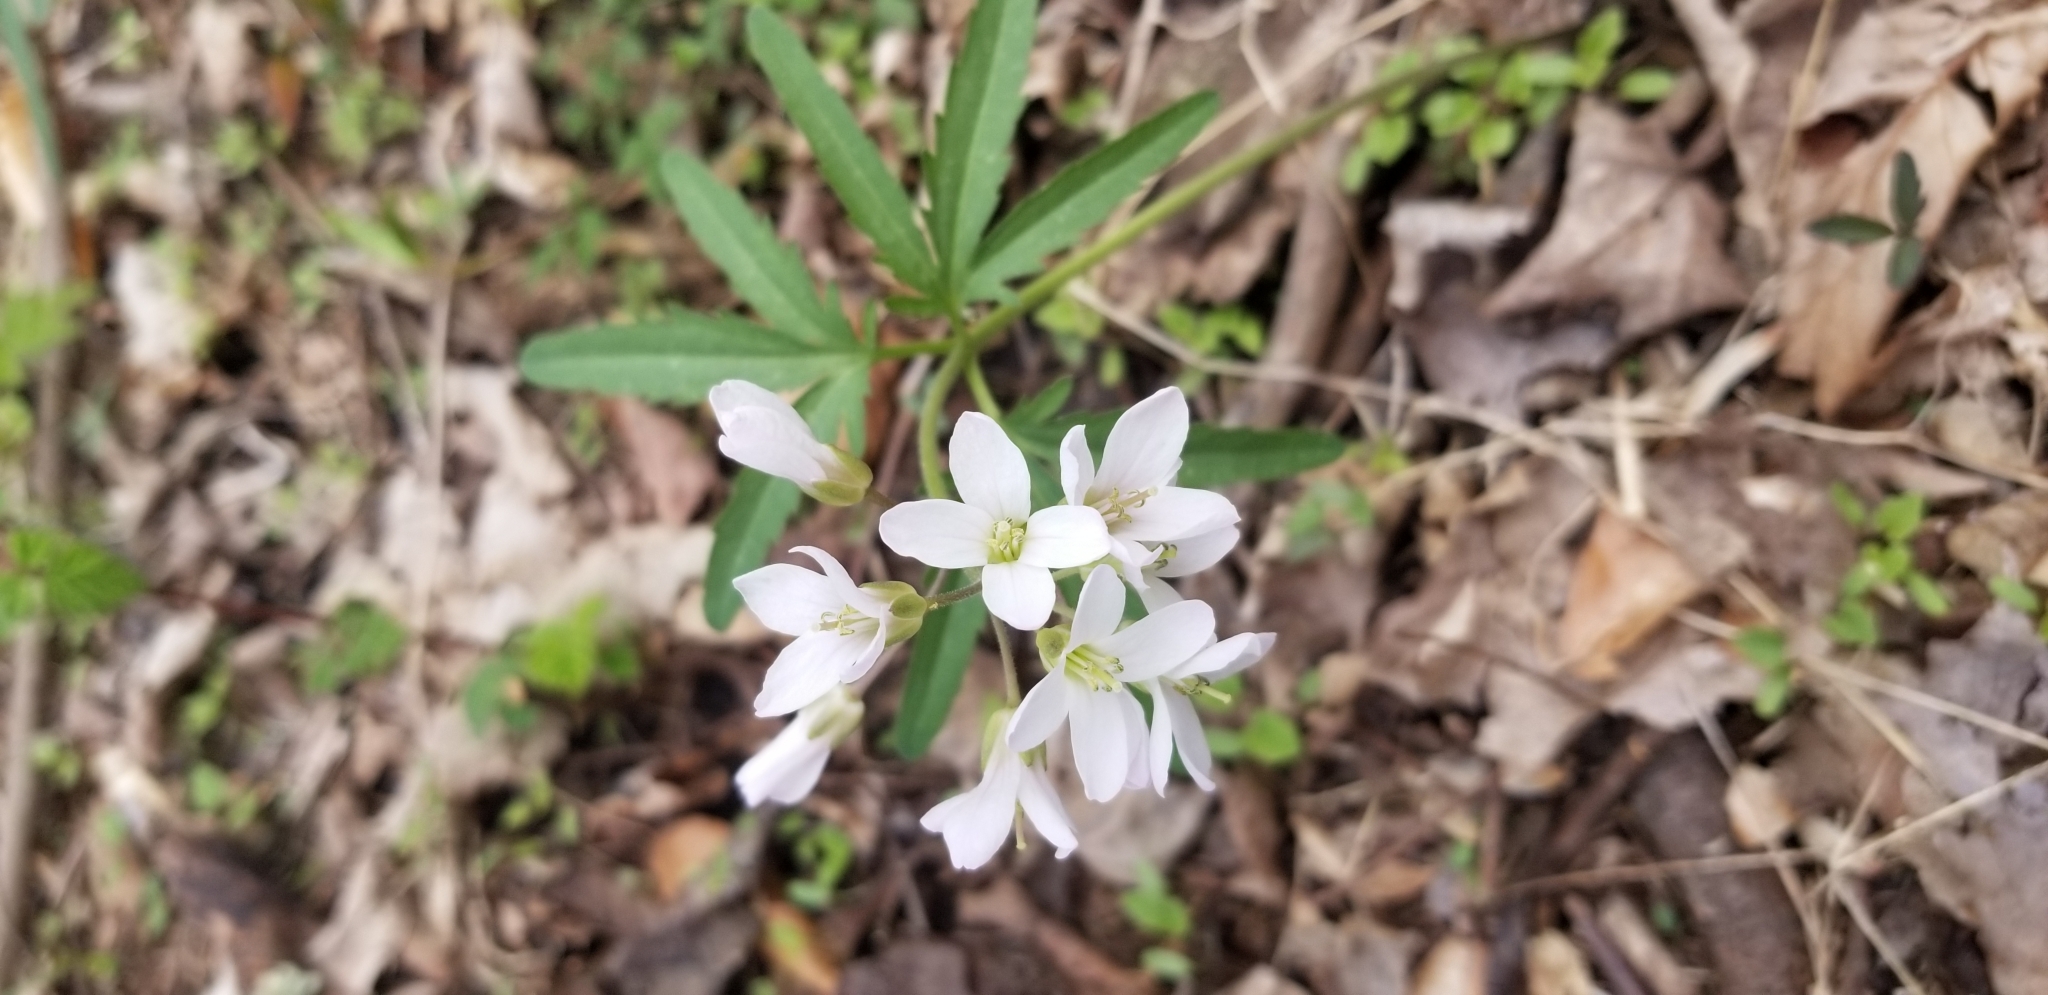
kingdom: Plantae
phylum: Tracheophyta
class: Magnoliopsida
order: Brassicales
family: Brassicaceae
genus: Cardamine
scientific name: Cardamine concatenata
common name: Cut-leaf toothcup
